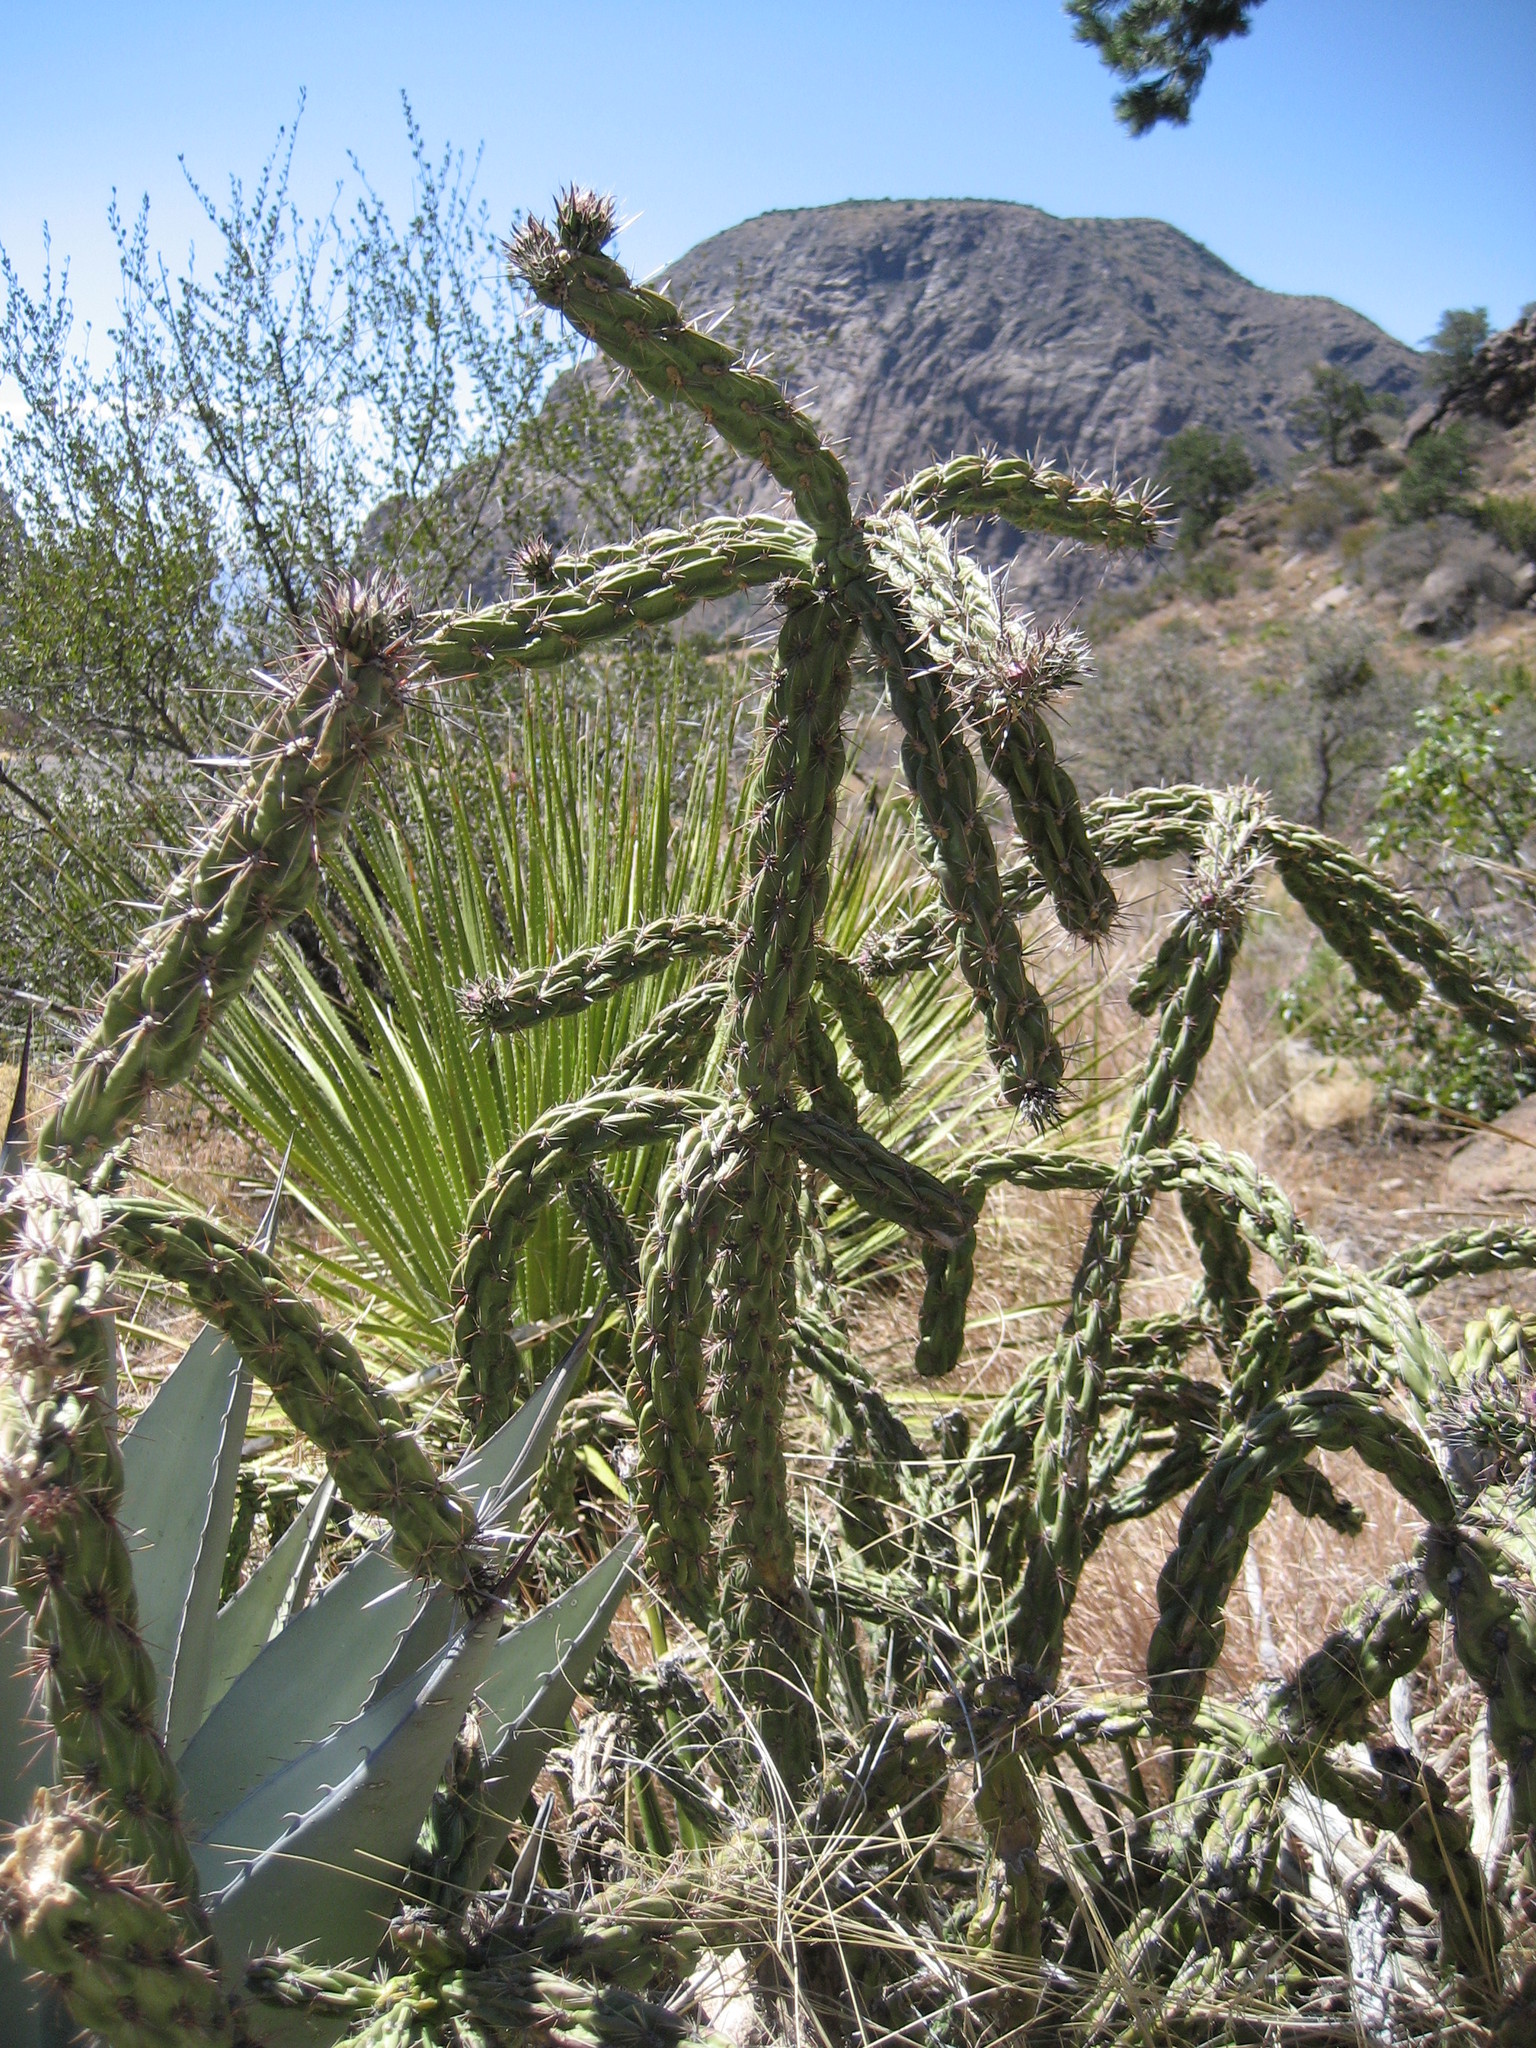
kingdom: Plantae
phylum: Tracheophyta
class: Magnoliopsida
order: Caryophyllales
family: Cactaceae
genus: Cylindropuntia
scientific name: Cylindropuntia imbricata
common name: Candelabrum cactus
